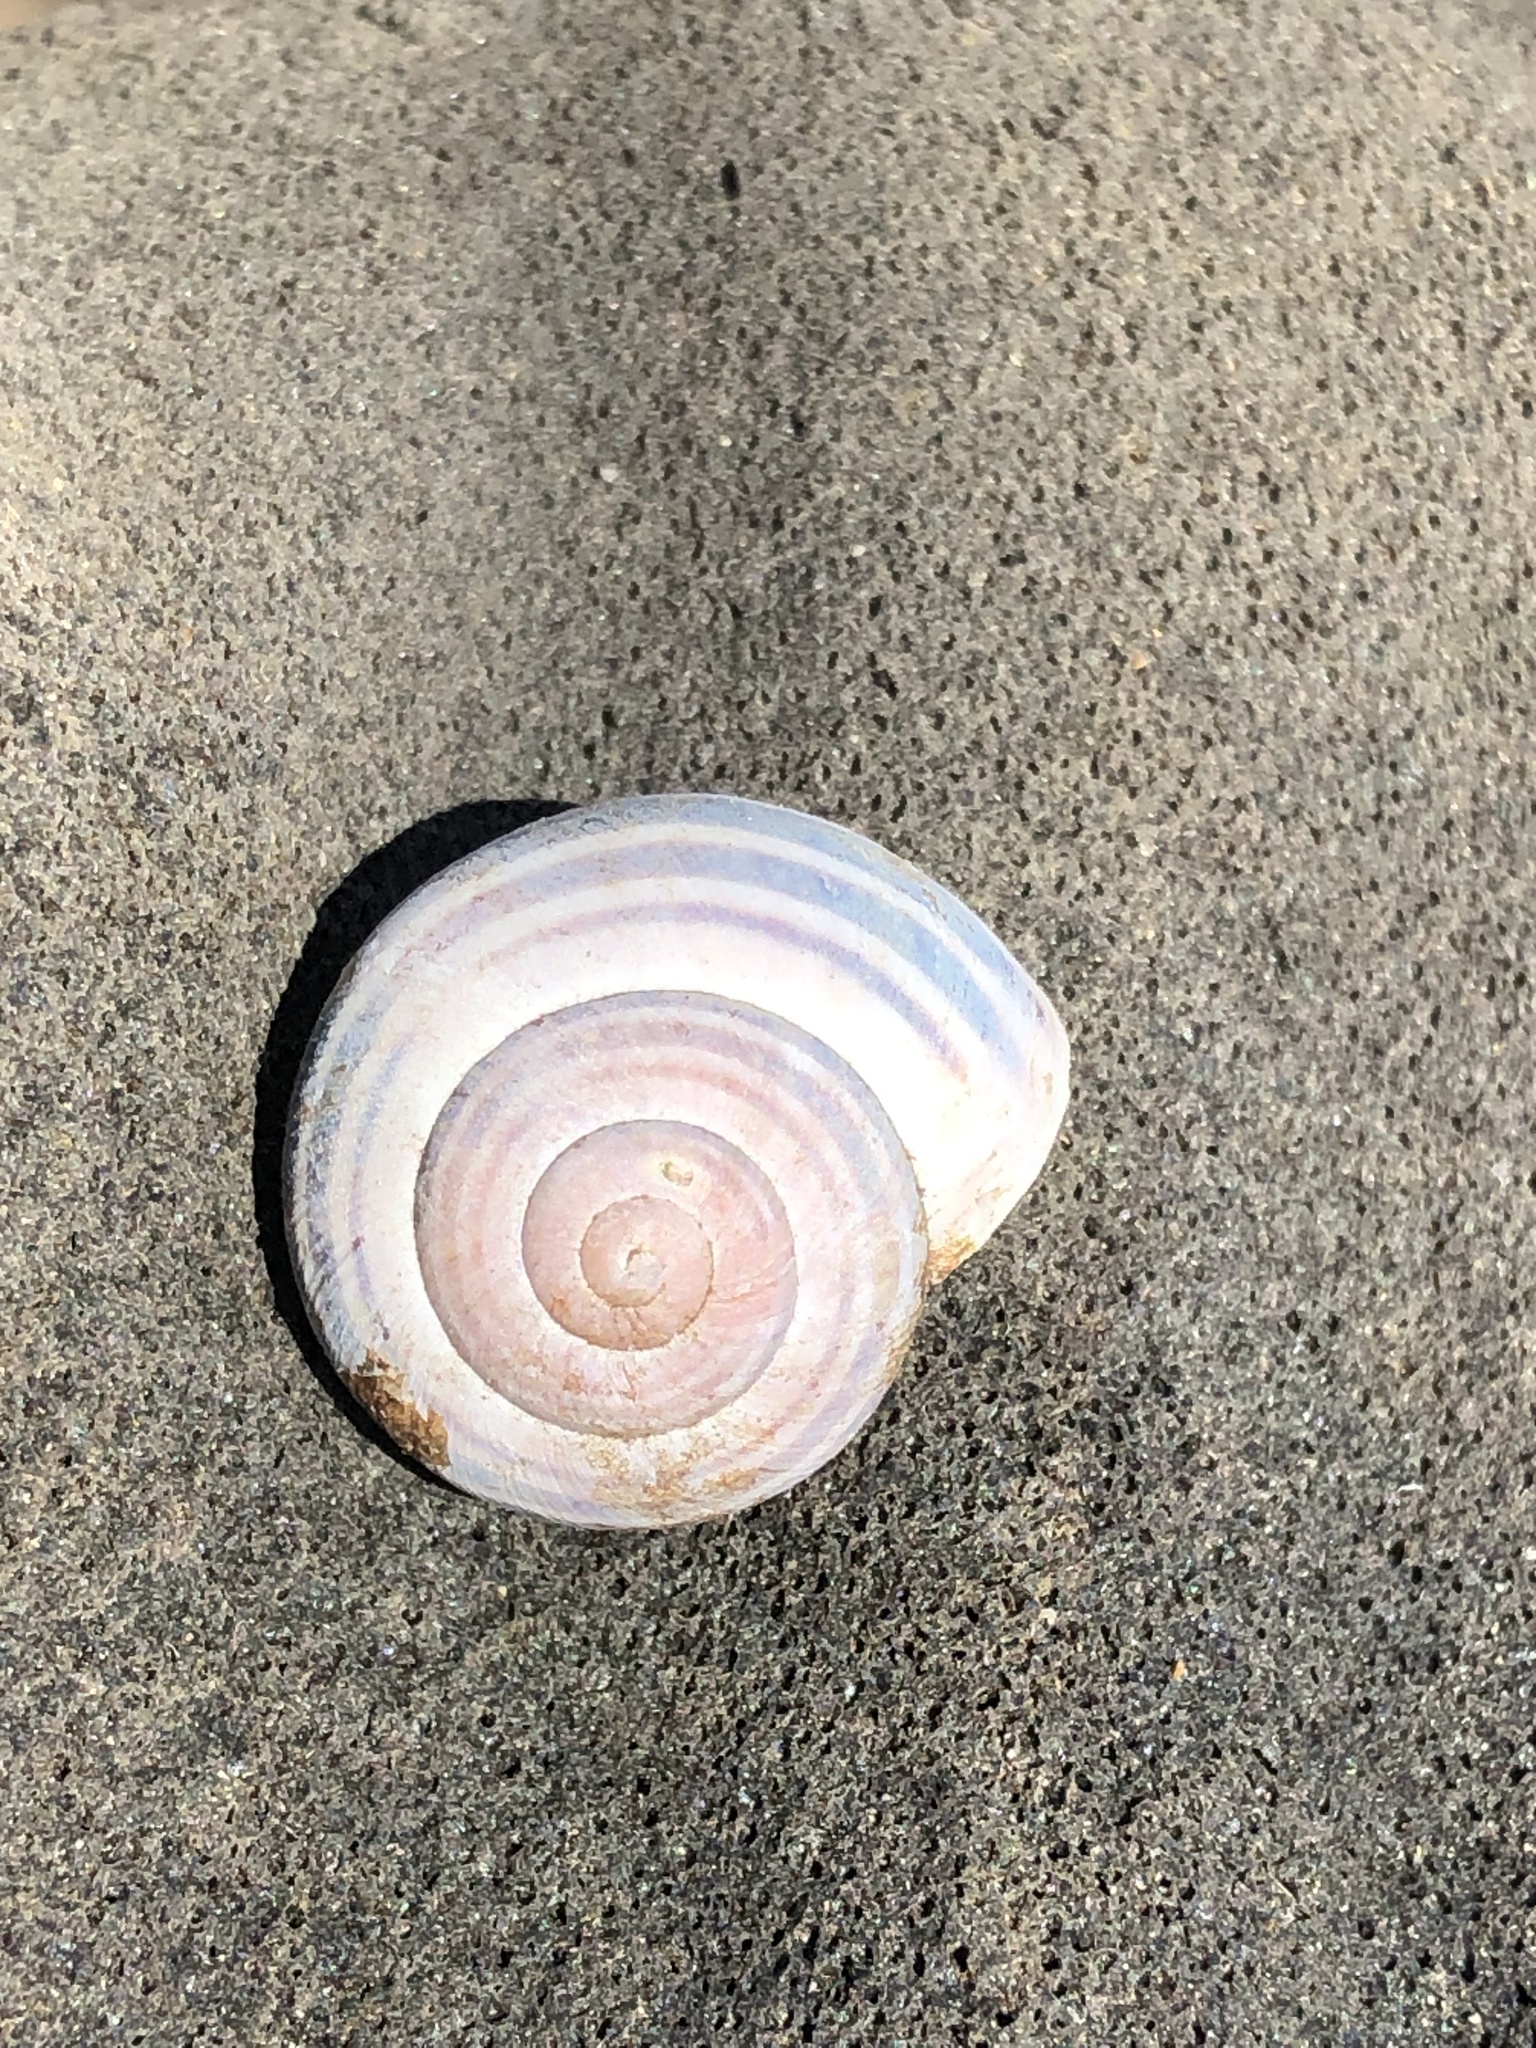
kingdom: Animalia
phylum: Mollusca
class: Gastropoda
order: Stylommatophora
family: Helicidae
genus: Cepaea
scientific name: Cepaea nemoralis
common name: Grovesnail
